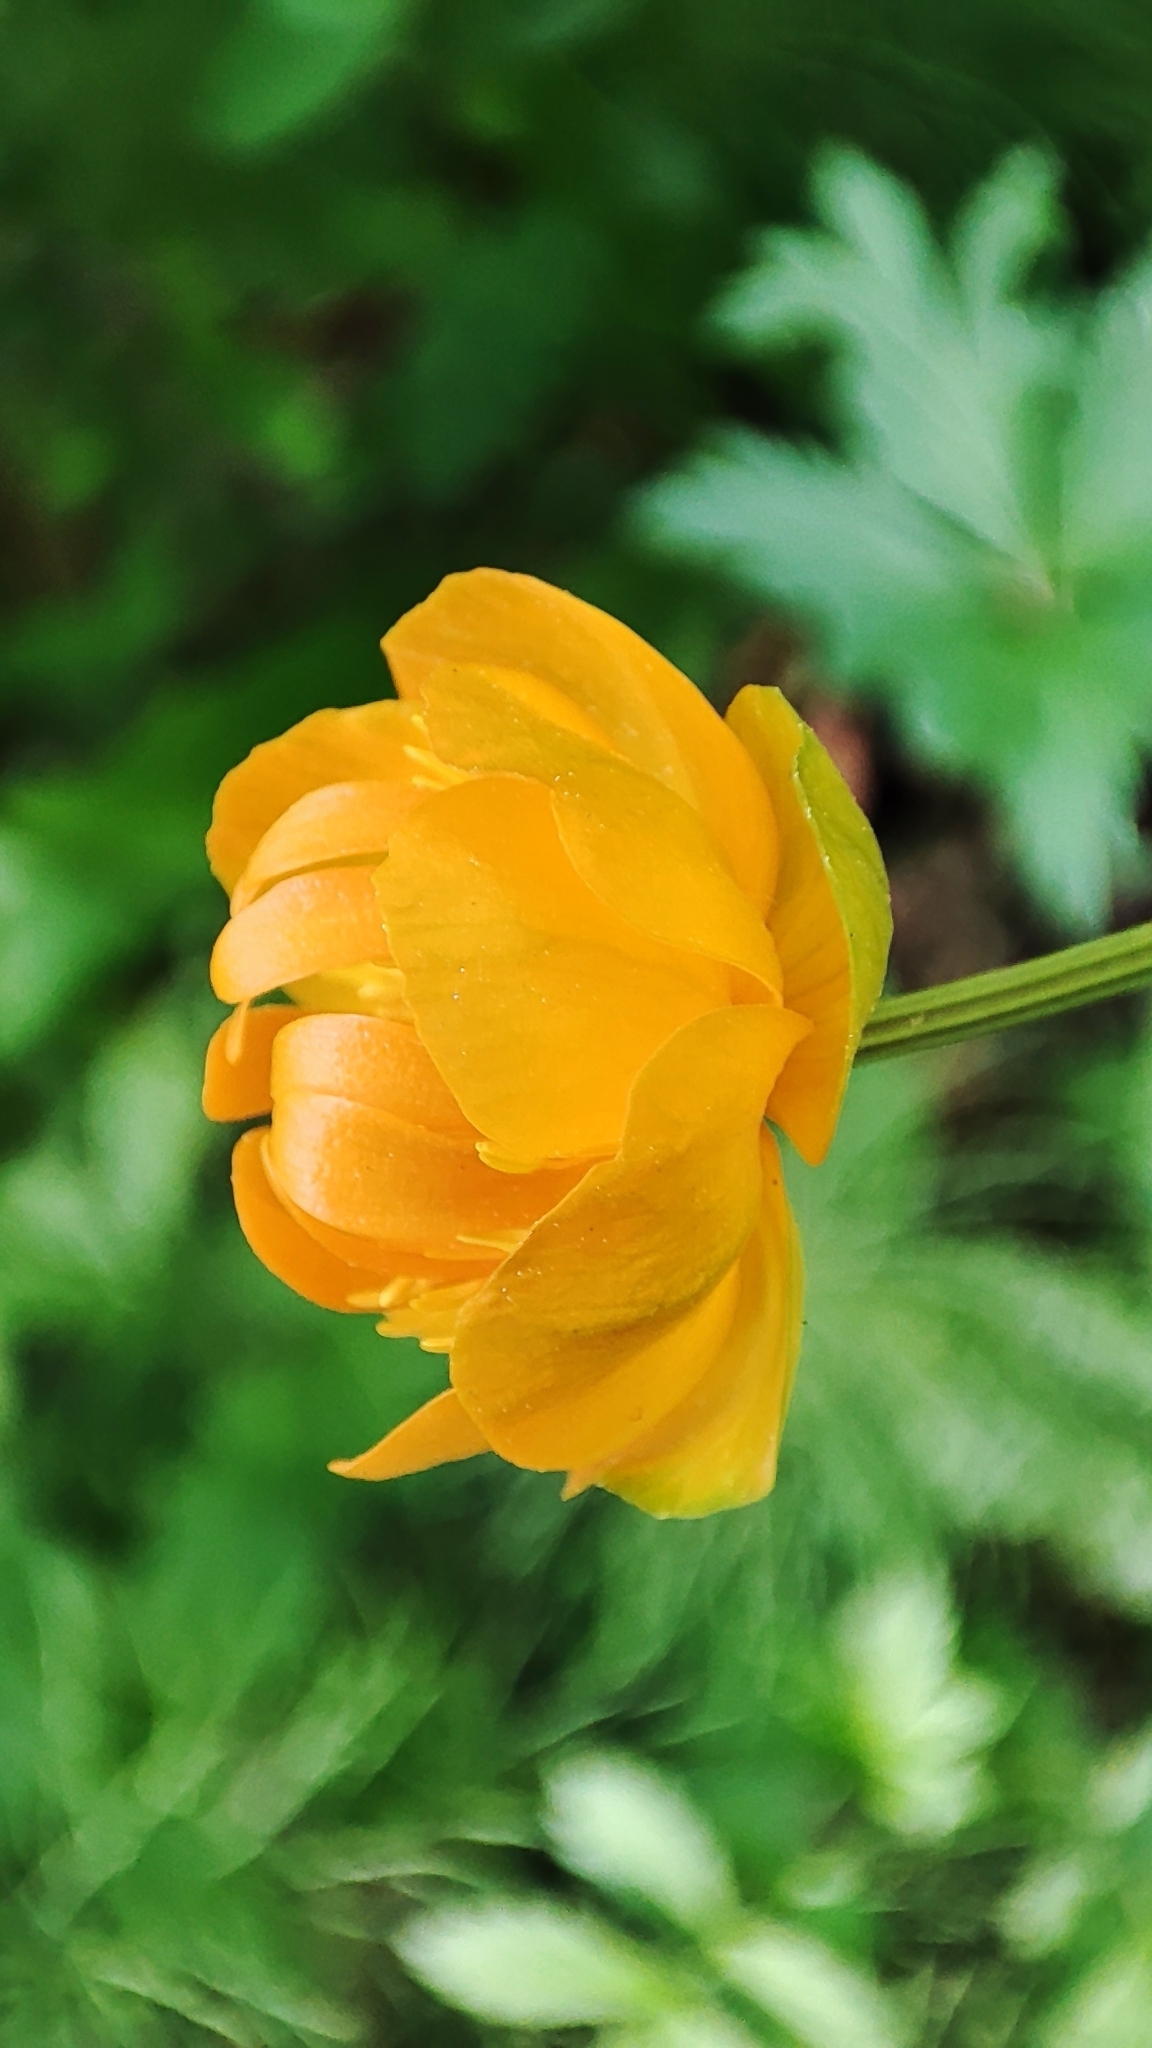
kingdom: Plantae
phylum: Tracheophyta
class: Magnoliopsida
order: Ranunculales
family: Ranunculaceae
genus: Trollius
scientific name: Trollius asiaticus
